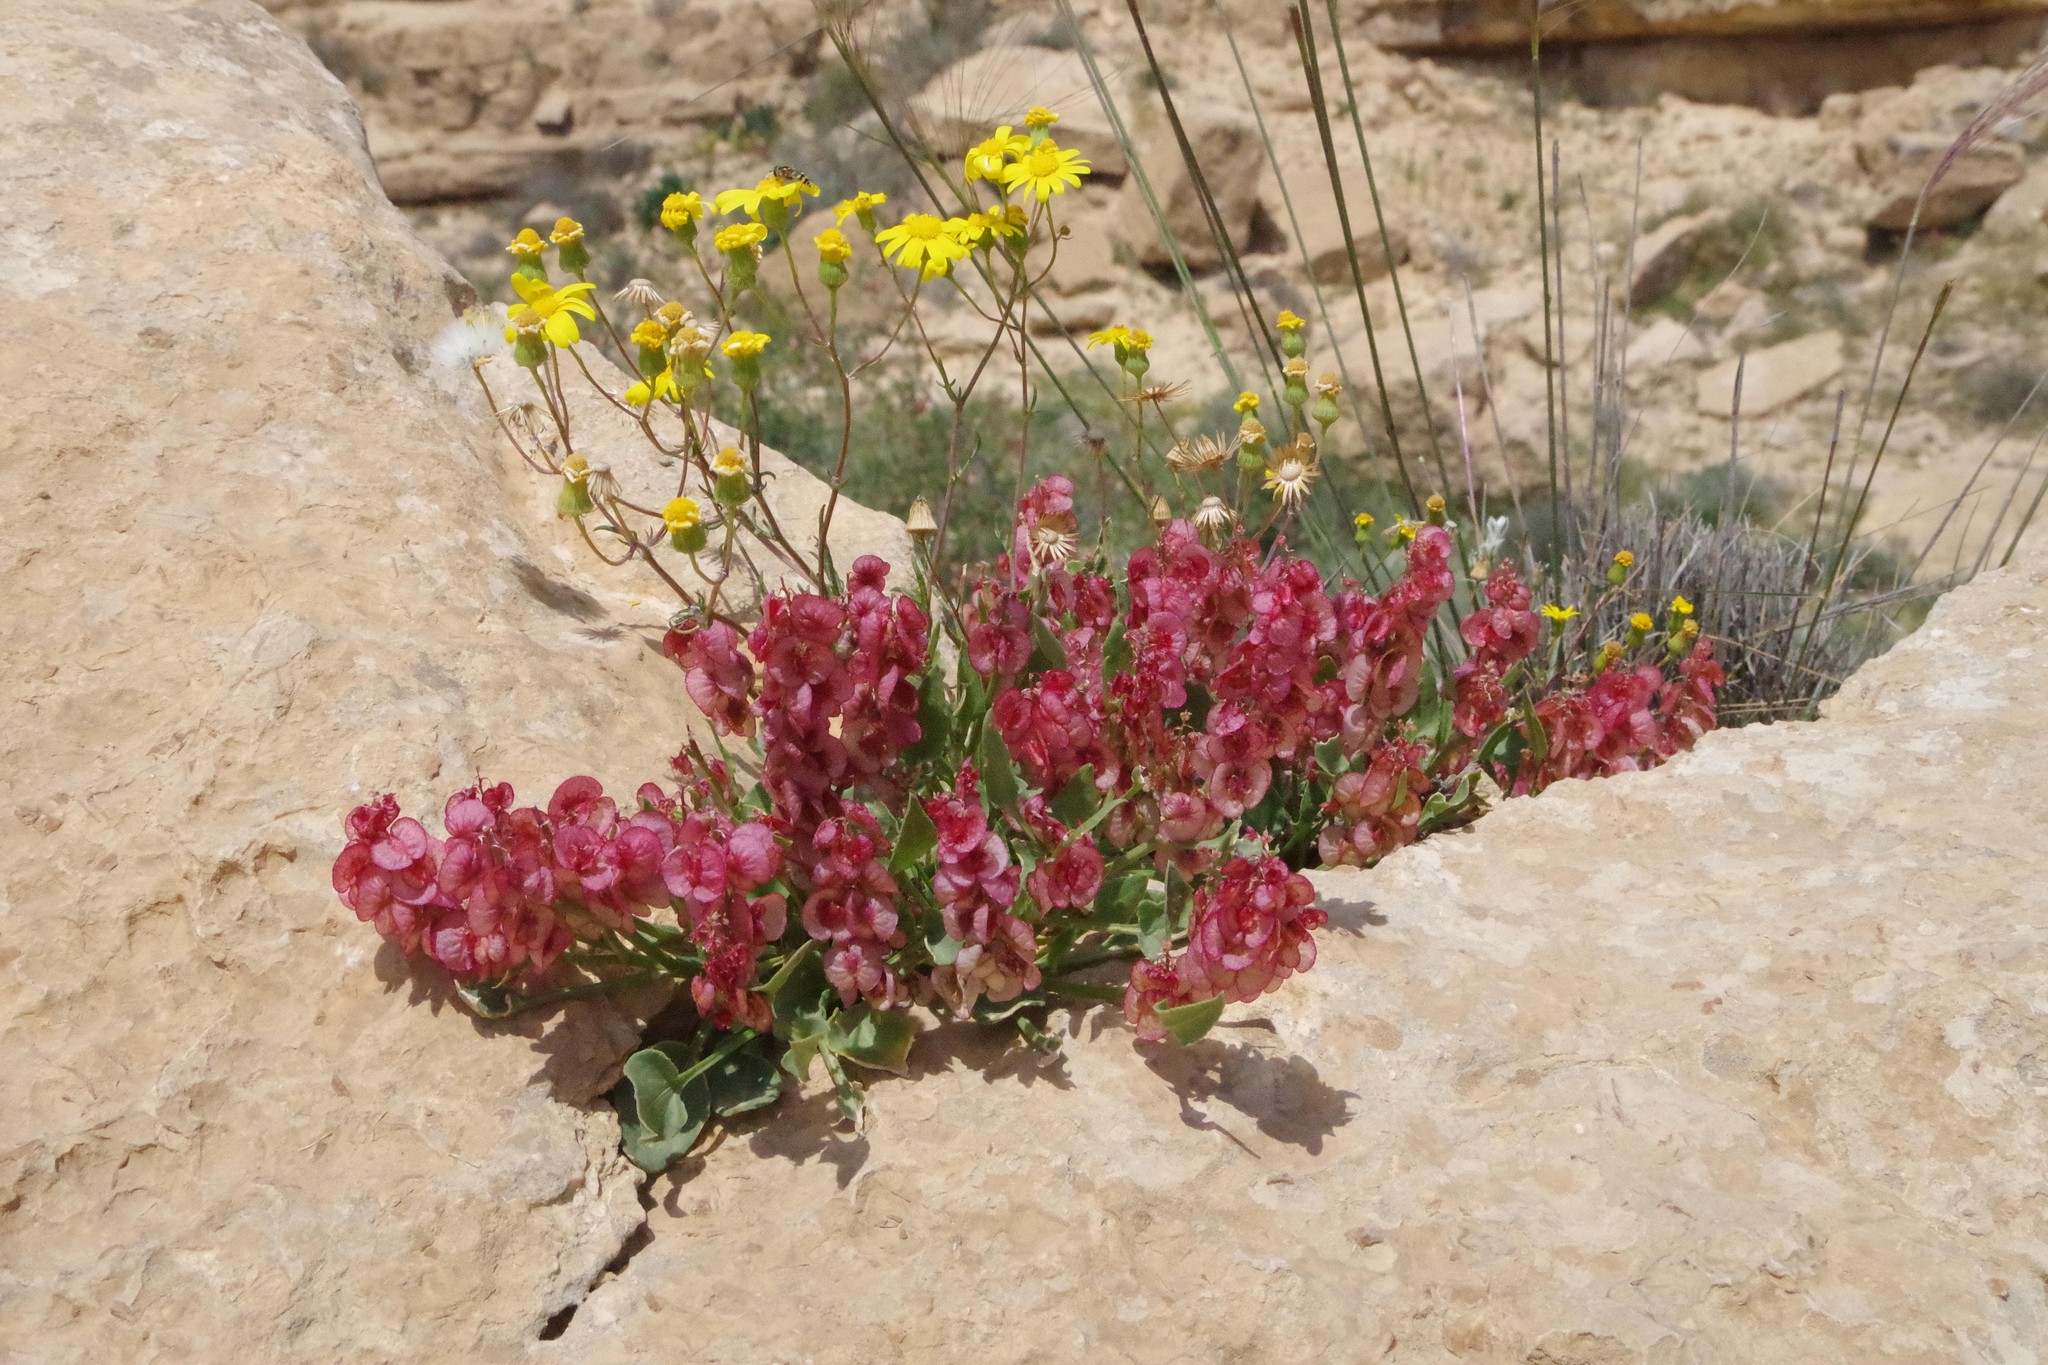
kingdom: Plantae
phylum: Tracheophyta
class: Magnoliopsida
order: Caryophyllales
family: Polygonaceae
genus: Rumex
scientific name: Rumex cyprius
